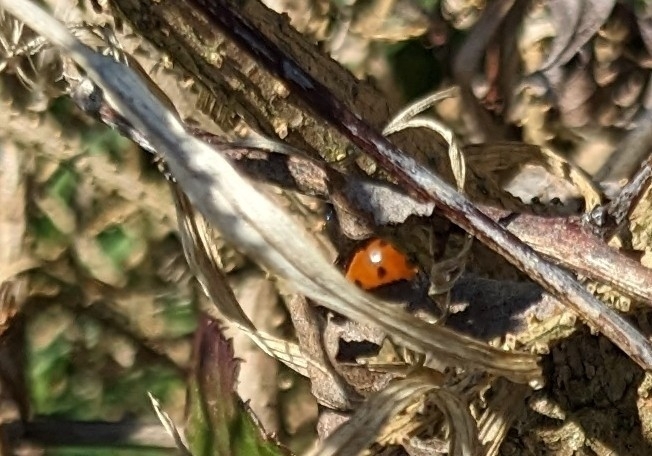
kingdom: Animalia
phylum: Arthropoda
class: Insecta
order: Coleoptera
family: Coccinellidae
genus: Coccinella
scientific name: Coccinella septempunctata
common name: Sevenspotted lady beetle
